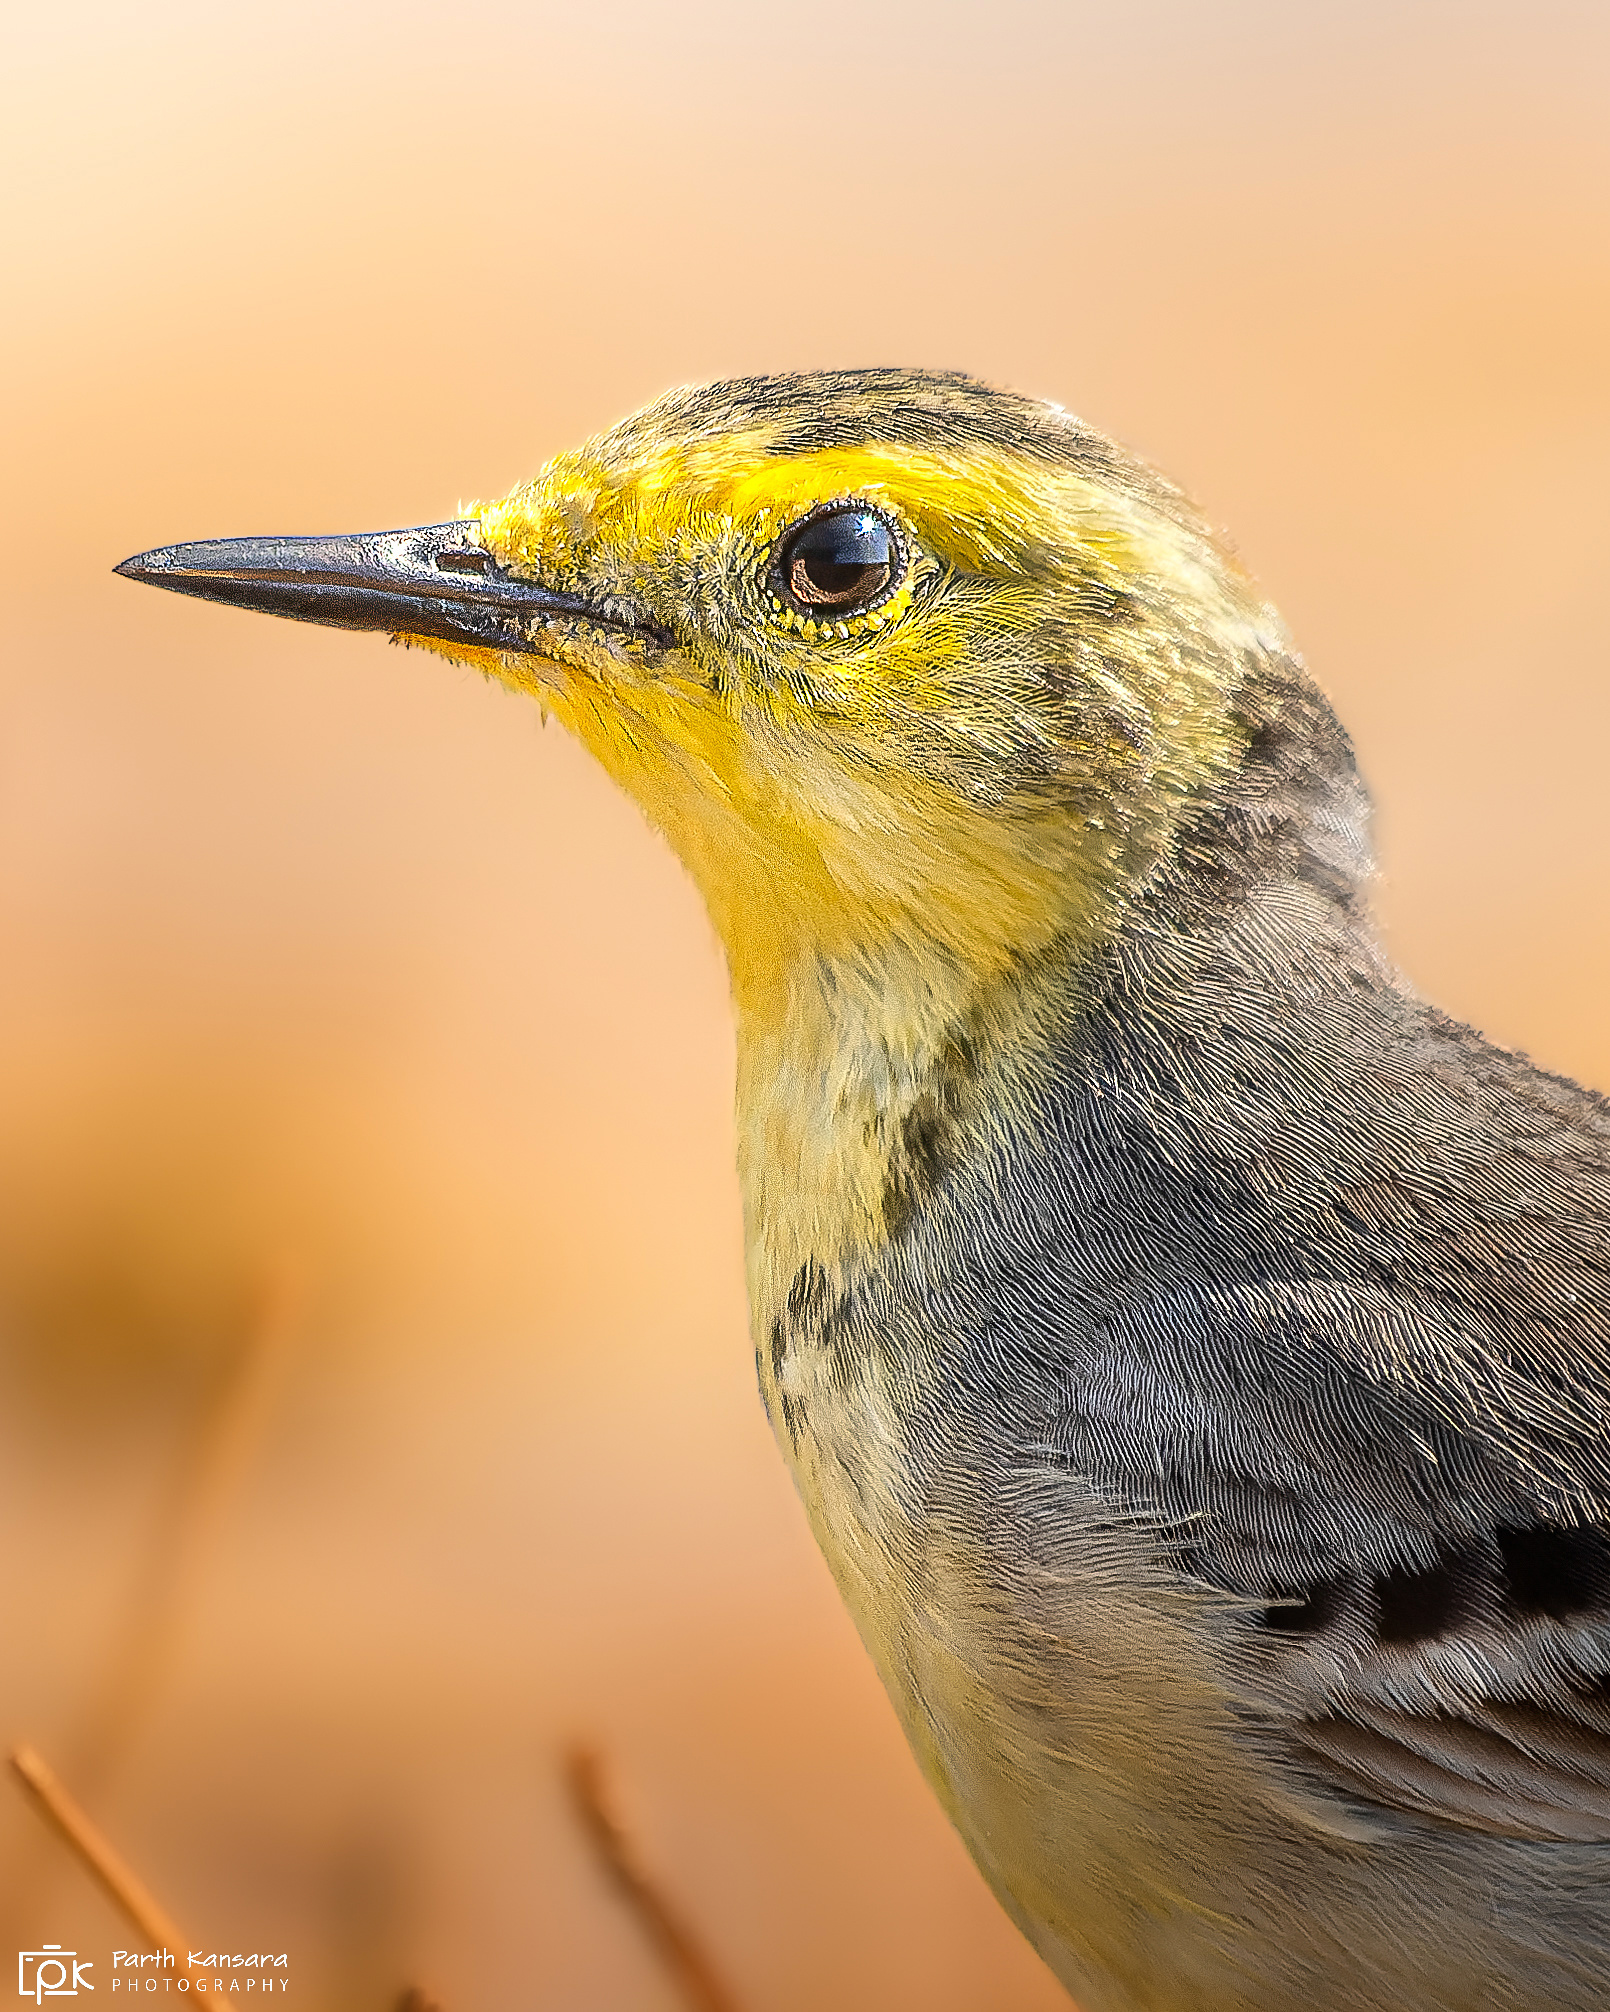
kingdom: Animalia
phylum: Chordata
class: Aves
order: Passeriformes
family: Motacillidae
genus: Motacilla
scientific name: Motacilla citreola
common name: Citrine wagtail
